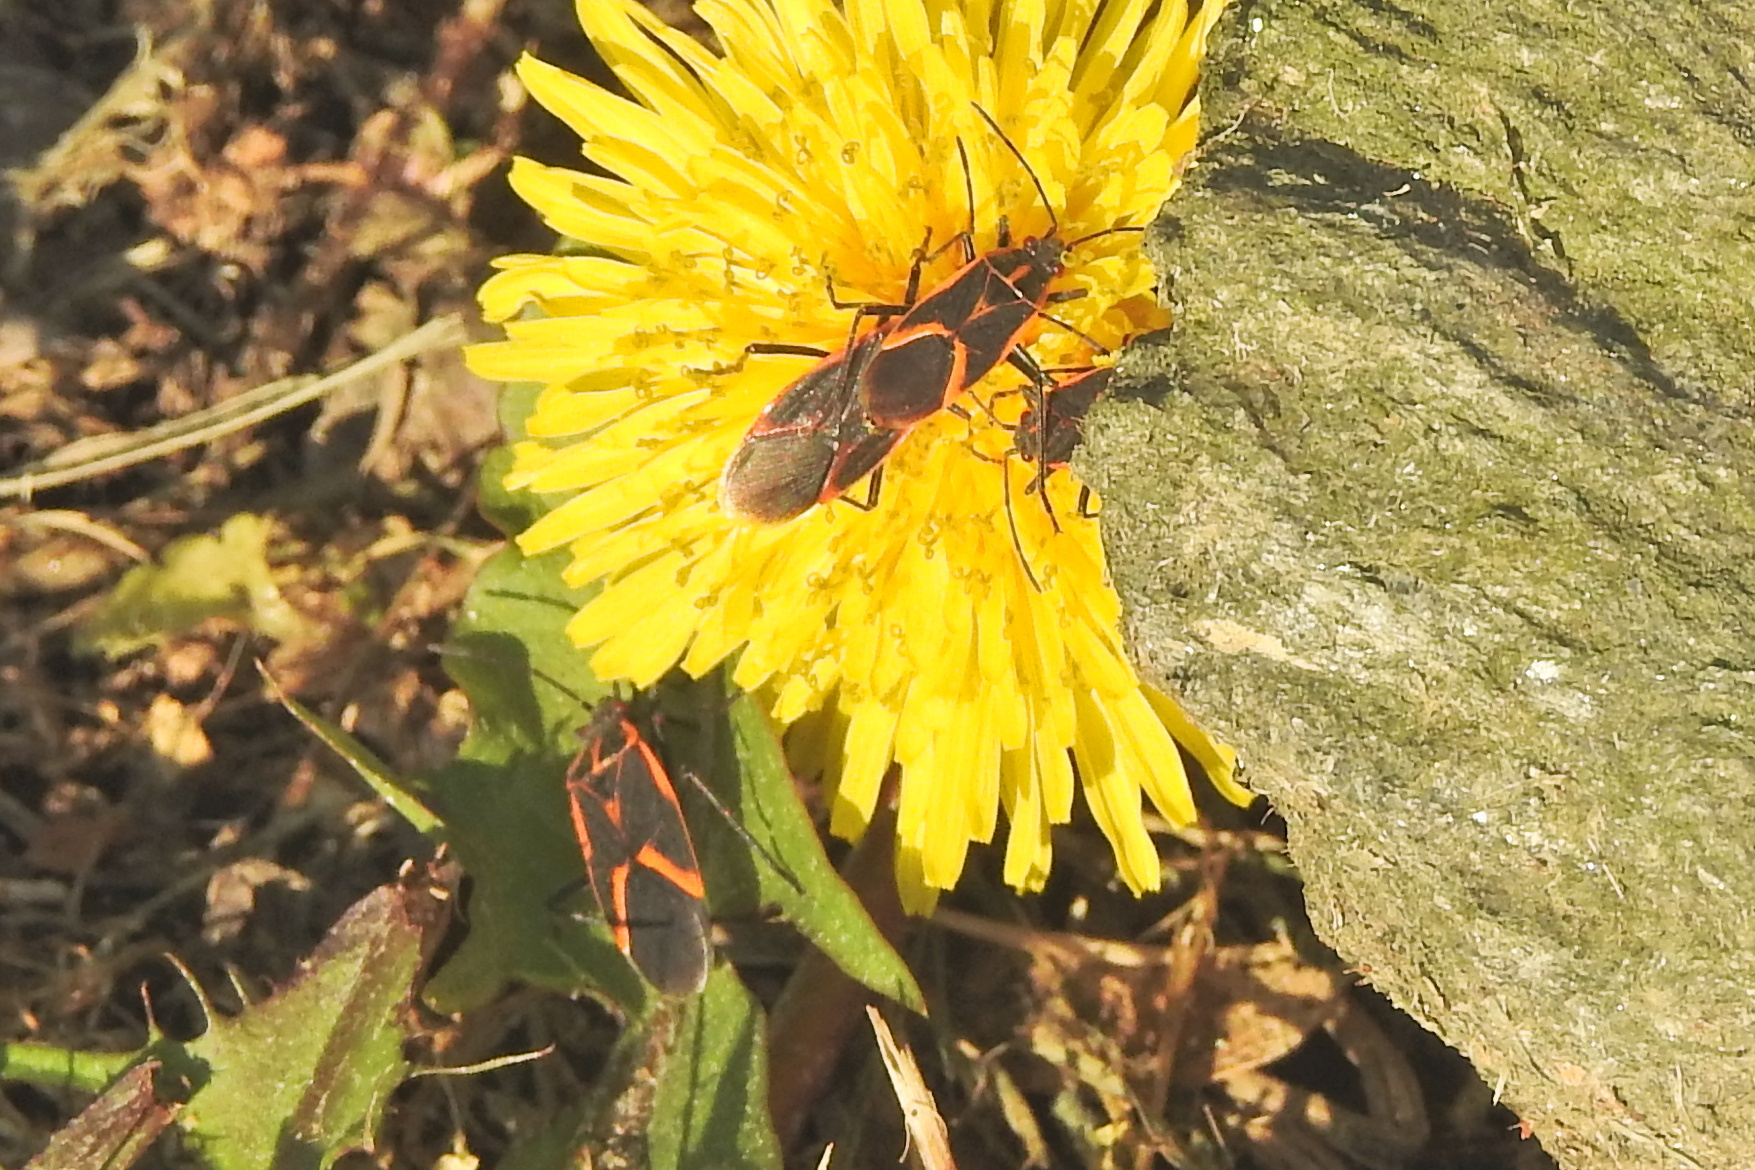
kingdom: Animalia
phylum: Arthropoda
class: Insecta
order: Hemiptera
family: Rhopalidae
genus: Boisea
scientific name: Boisea trivittata
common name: Boxelder bug
